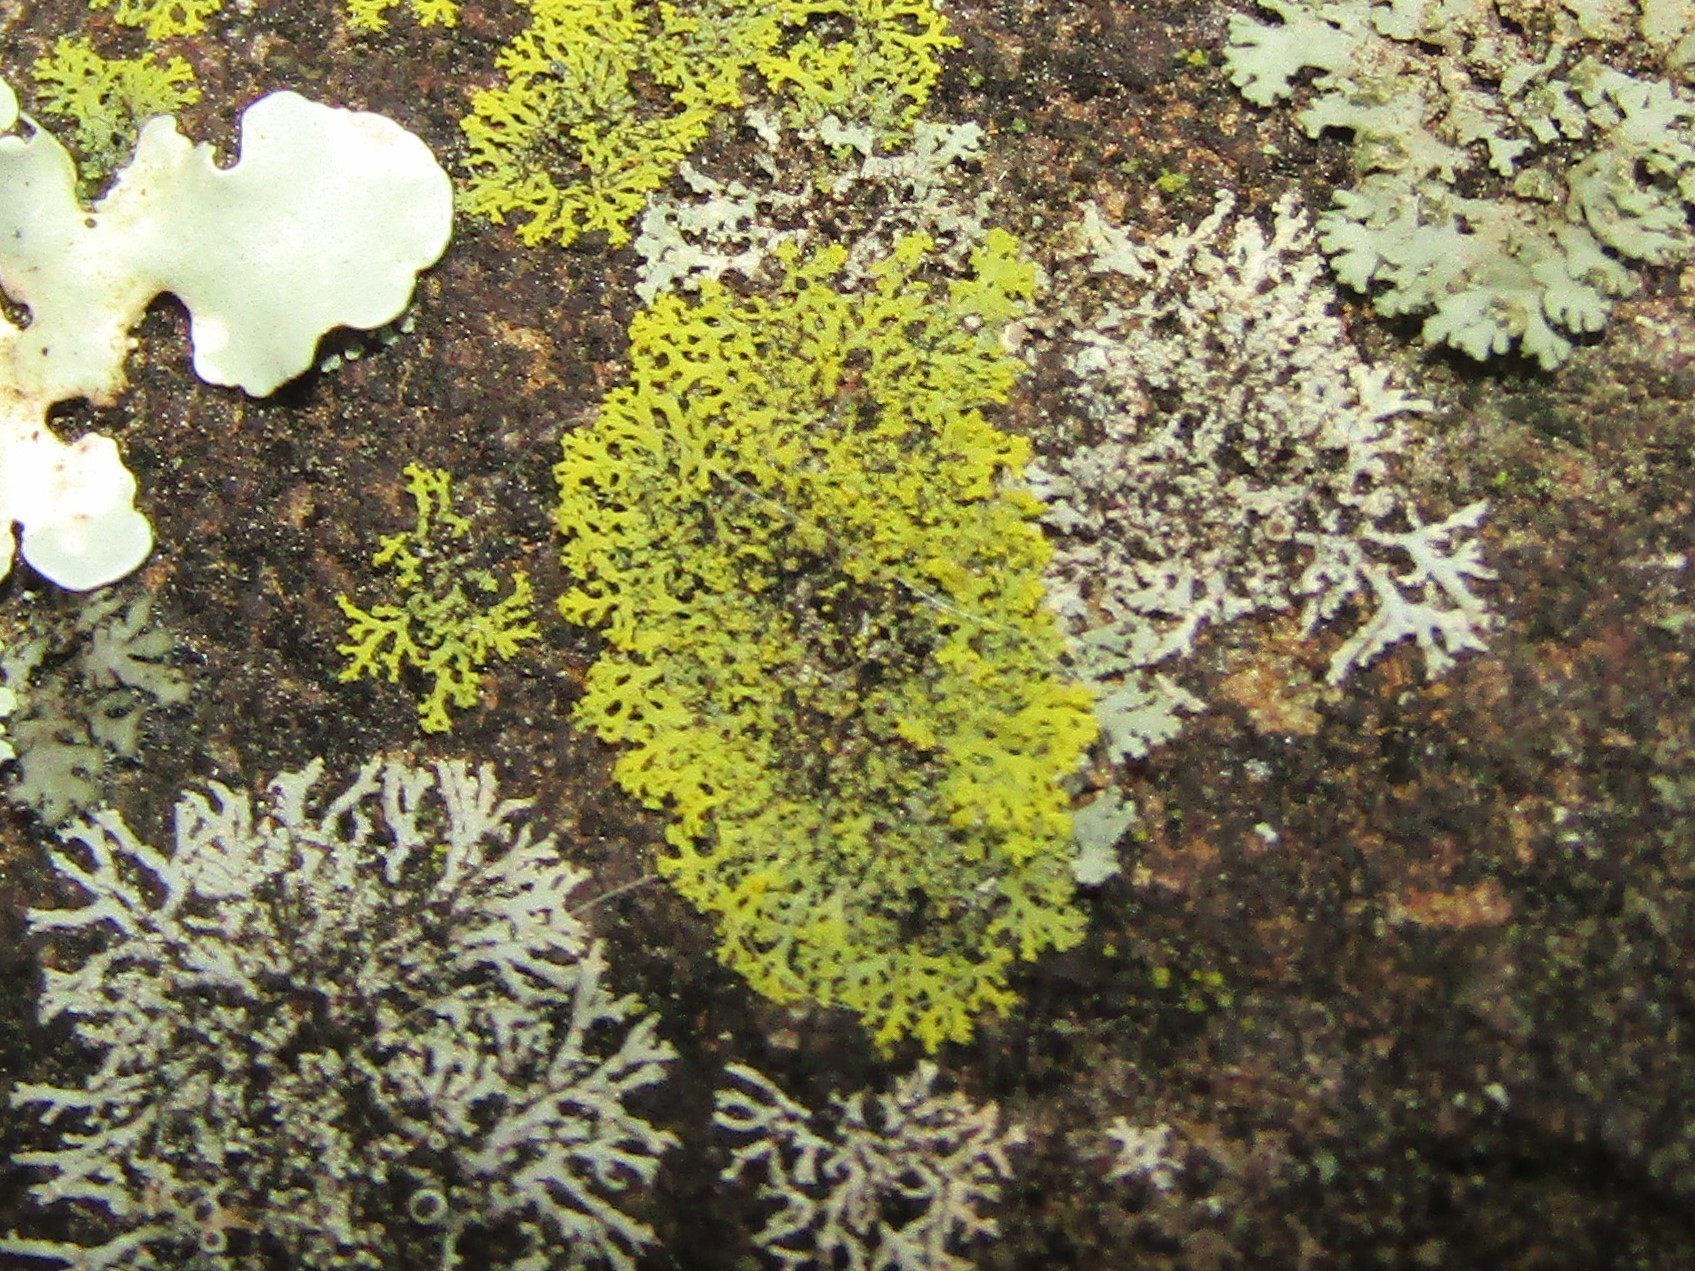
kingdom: Fungi
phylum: Ascomycota
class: Candelariomycetes
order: Candelariales
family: Candelariaceae
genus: Candelaria
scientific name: Candelaria concolor
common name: Candleflame lichen
